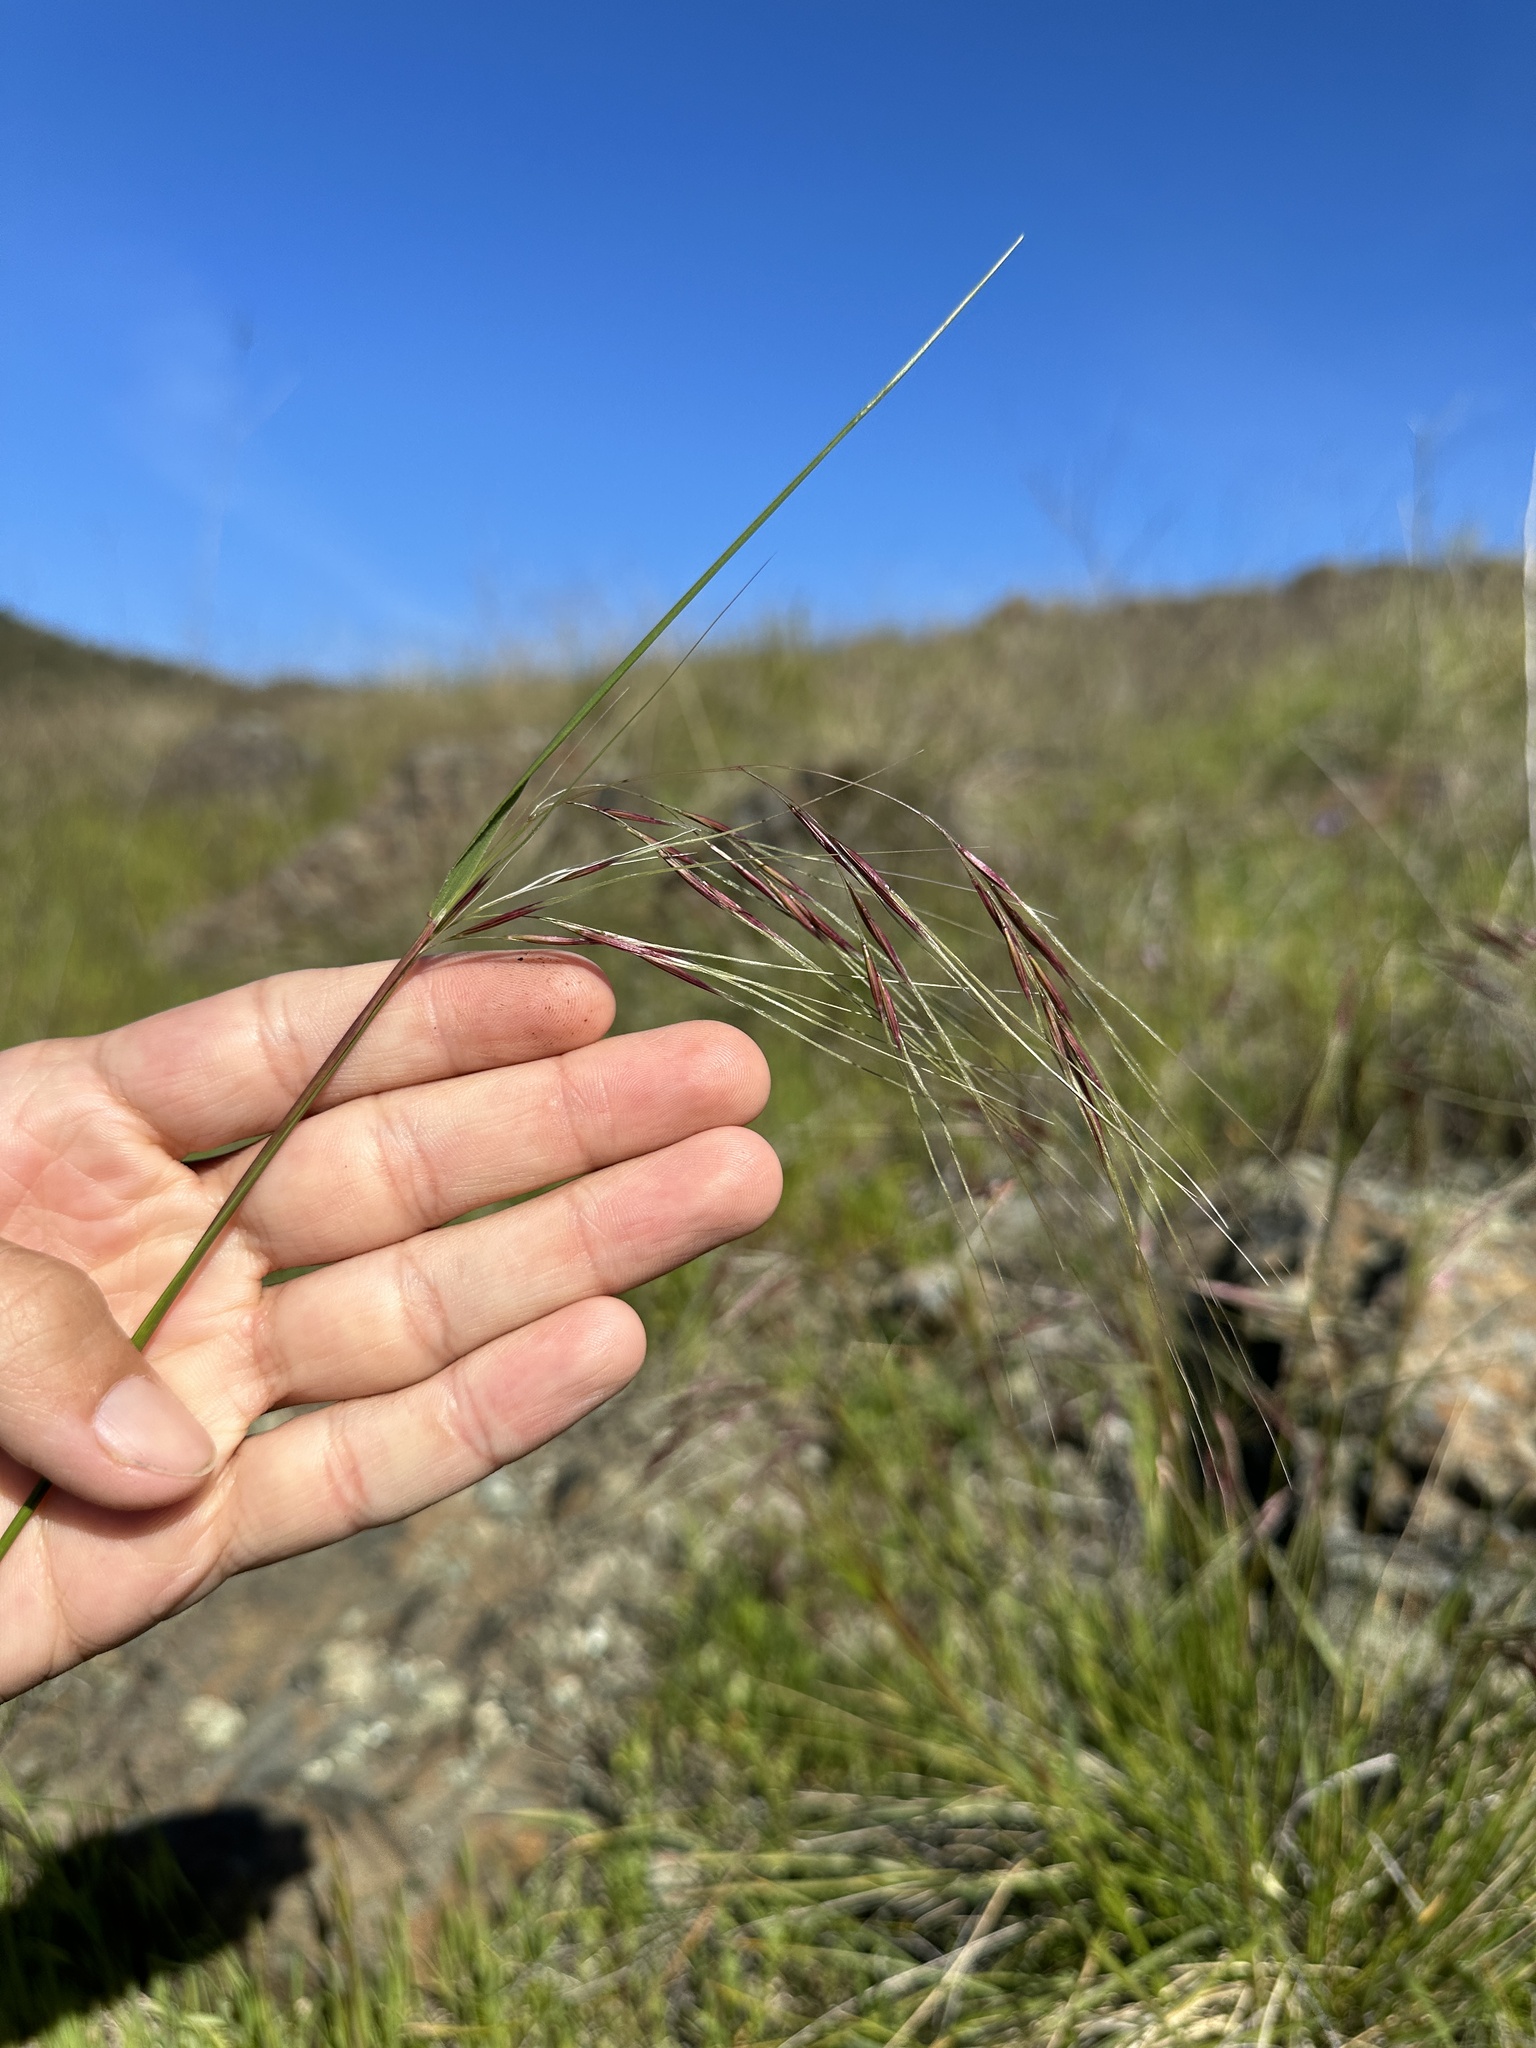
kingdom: Plantae
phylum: Tracheophyta
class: Liliopsida
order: Poales
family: Poaceae
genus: Nassella
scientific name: Nassella pulchra
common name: Purple needlegrass
